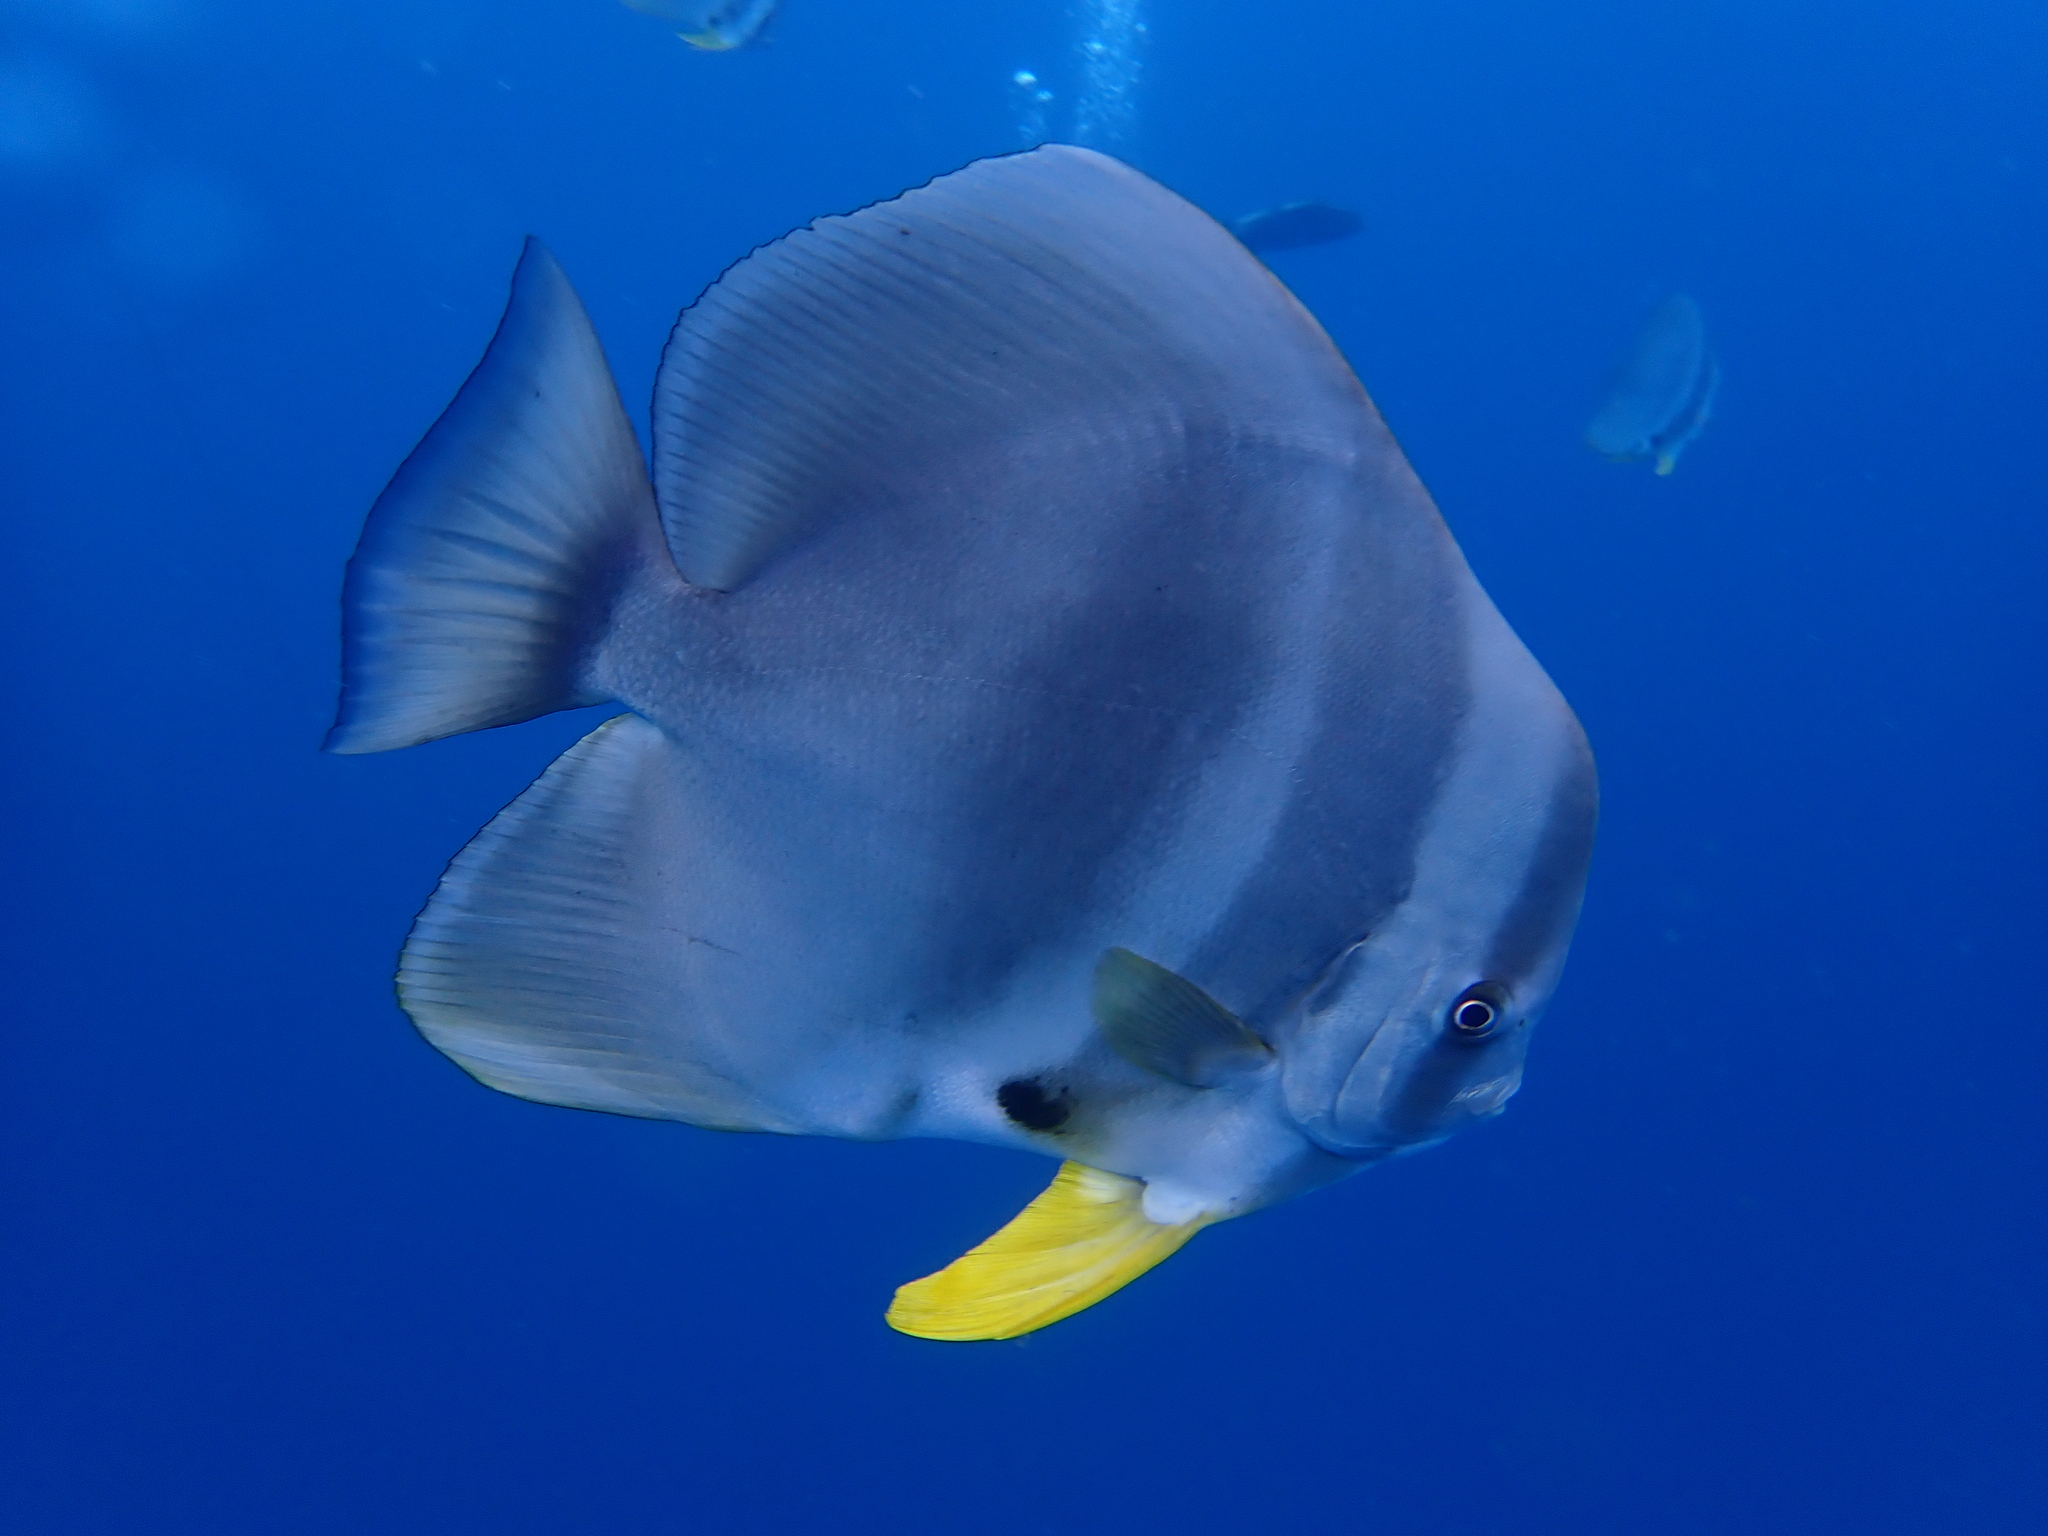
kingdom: Animalia
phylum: Chordata
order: Perciformes
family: Ephippidae
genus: Platax
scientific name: Platax teira
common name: Longfin baitfish
